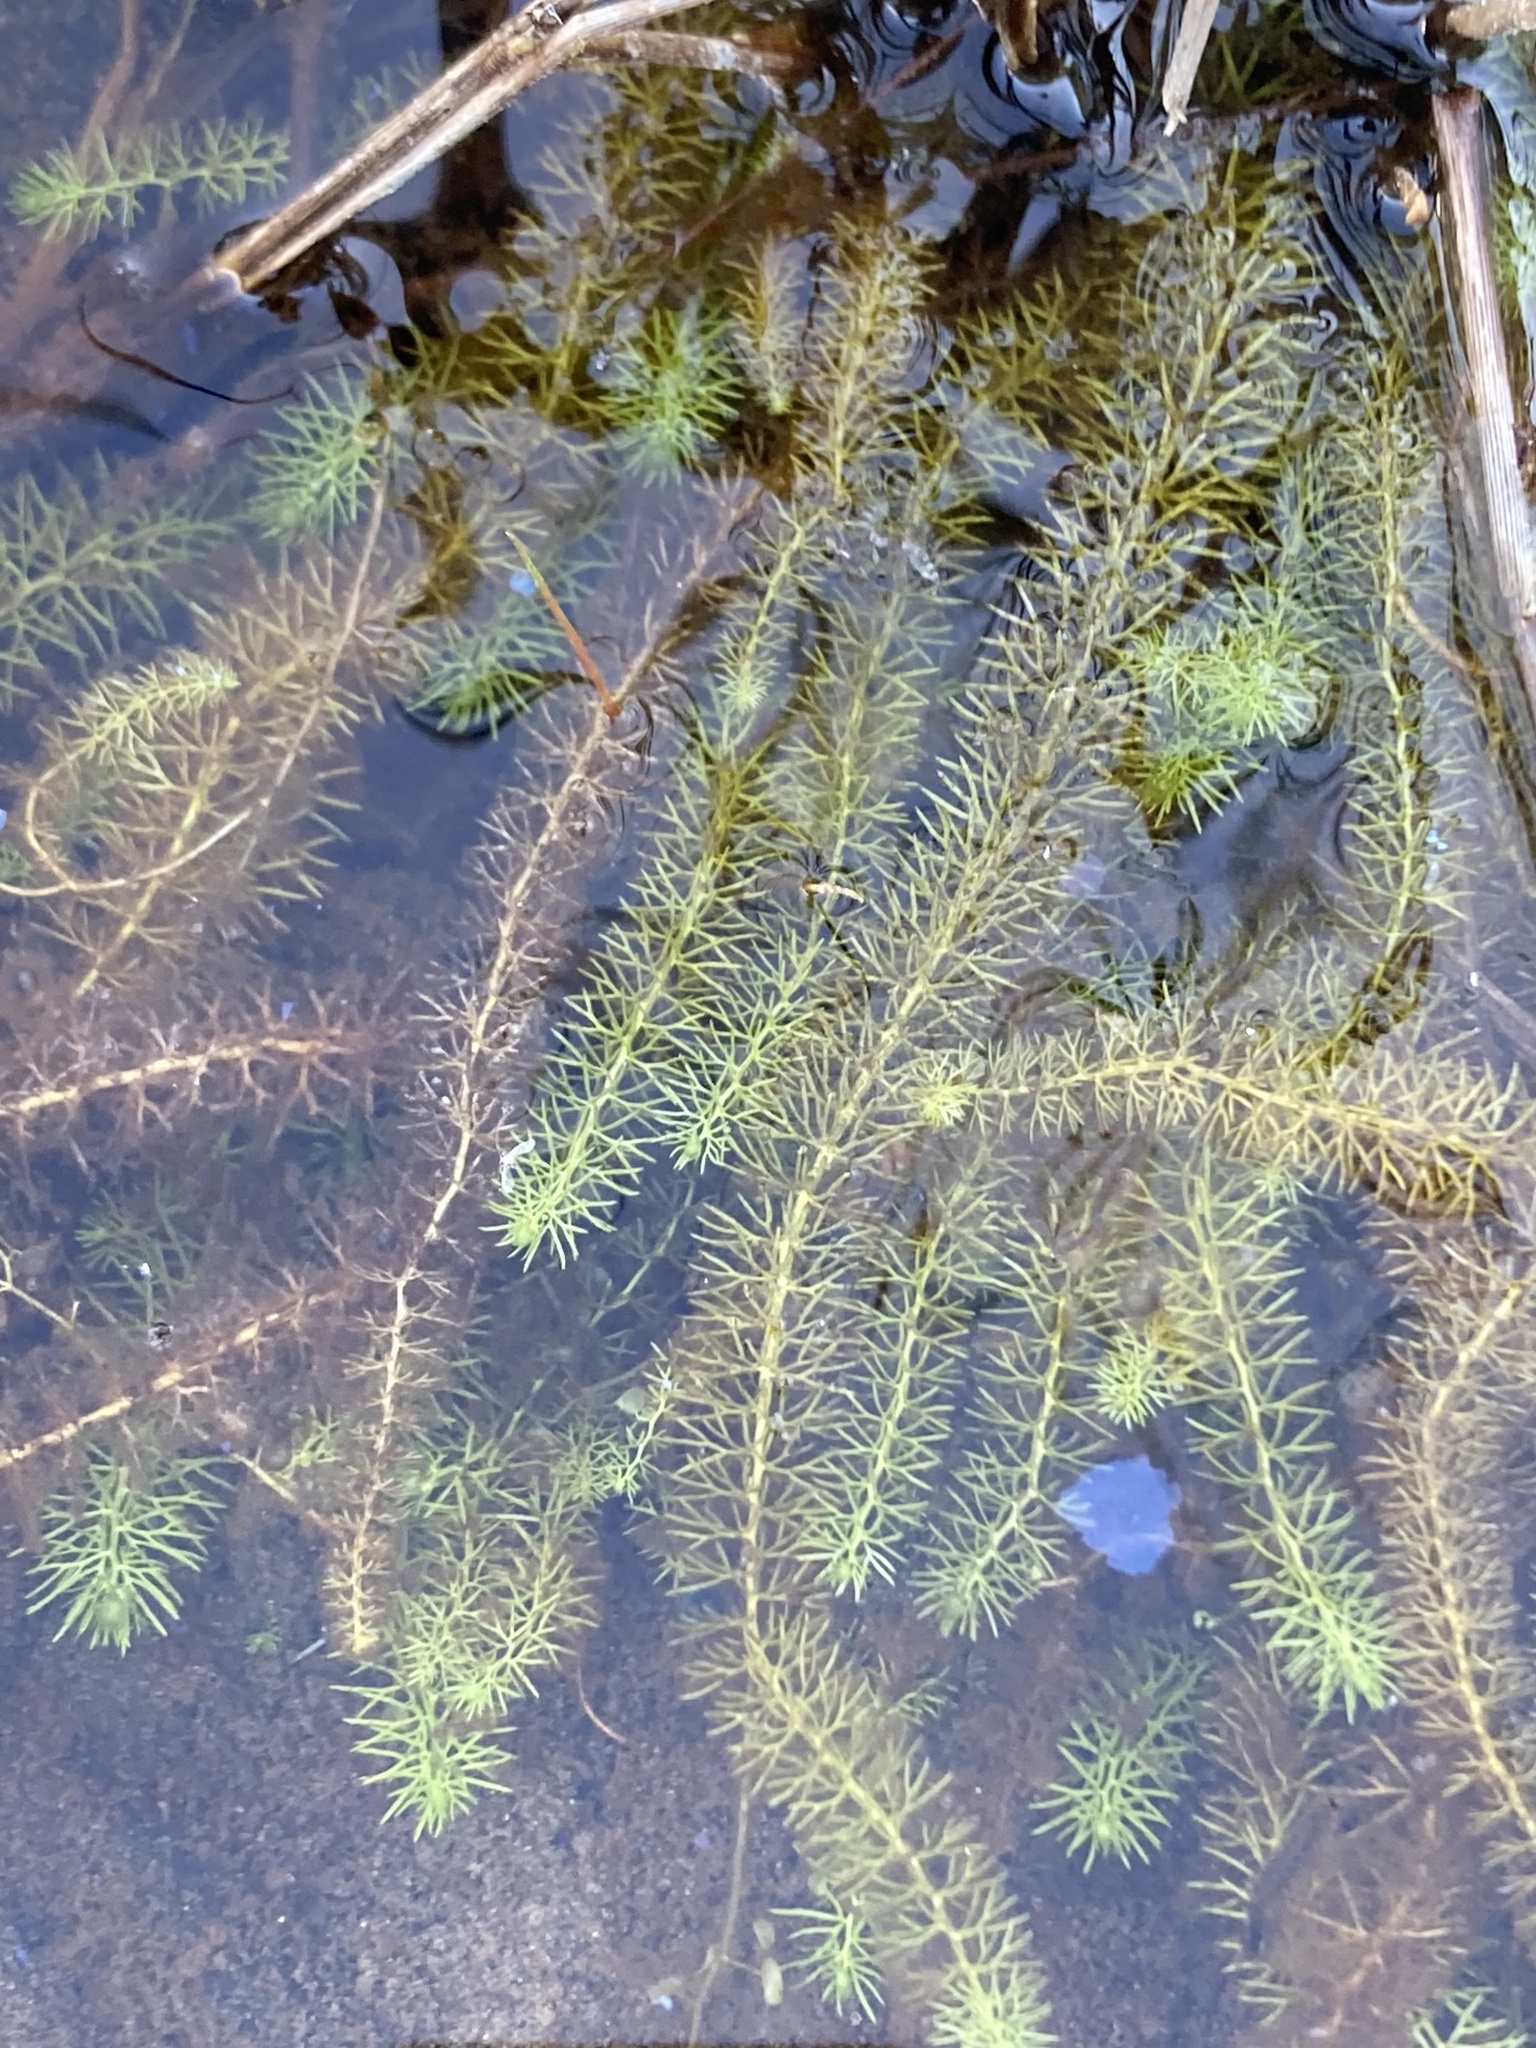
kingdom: Plantae
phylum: Tracheophyta
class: Magnoliopsida
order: Lamiales
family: Lentibulariaceae
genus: Utricularia
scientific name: Utricularia intermedia
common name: Intermediate bladderwort
